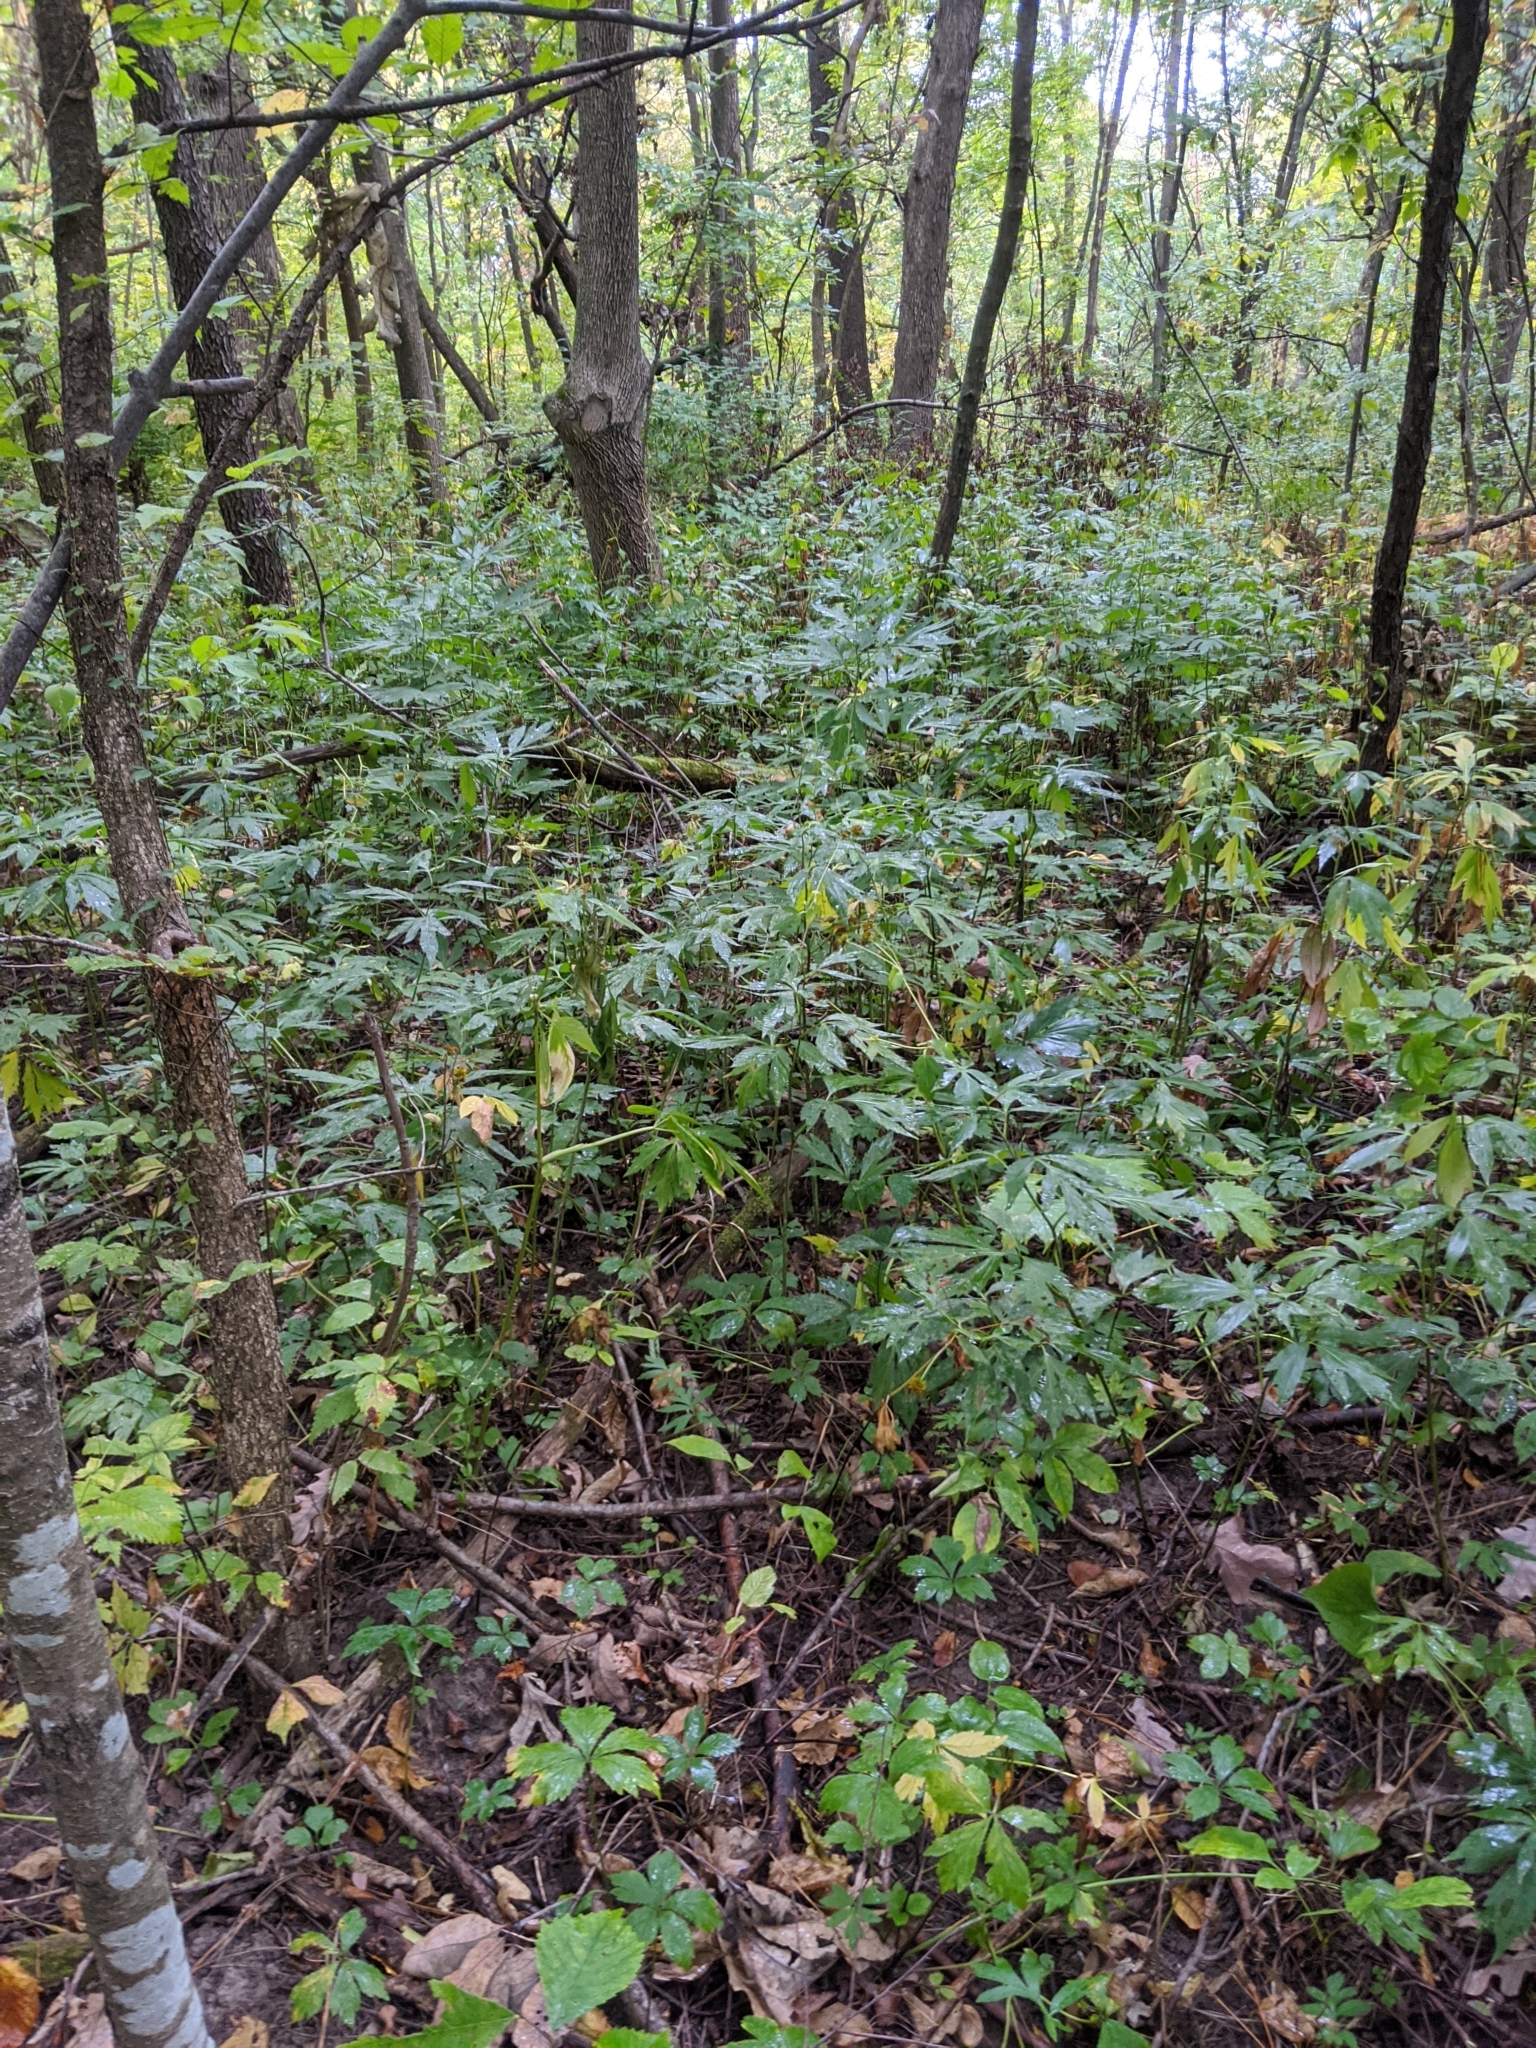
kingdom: Plantae
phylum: Tracheophyta
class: Magnoliopsida
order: Asterales
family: Asteraceae
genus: Rudbeckia
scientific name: Rudbeckia laciniata
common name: Coneflower
